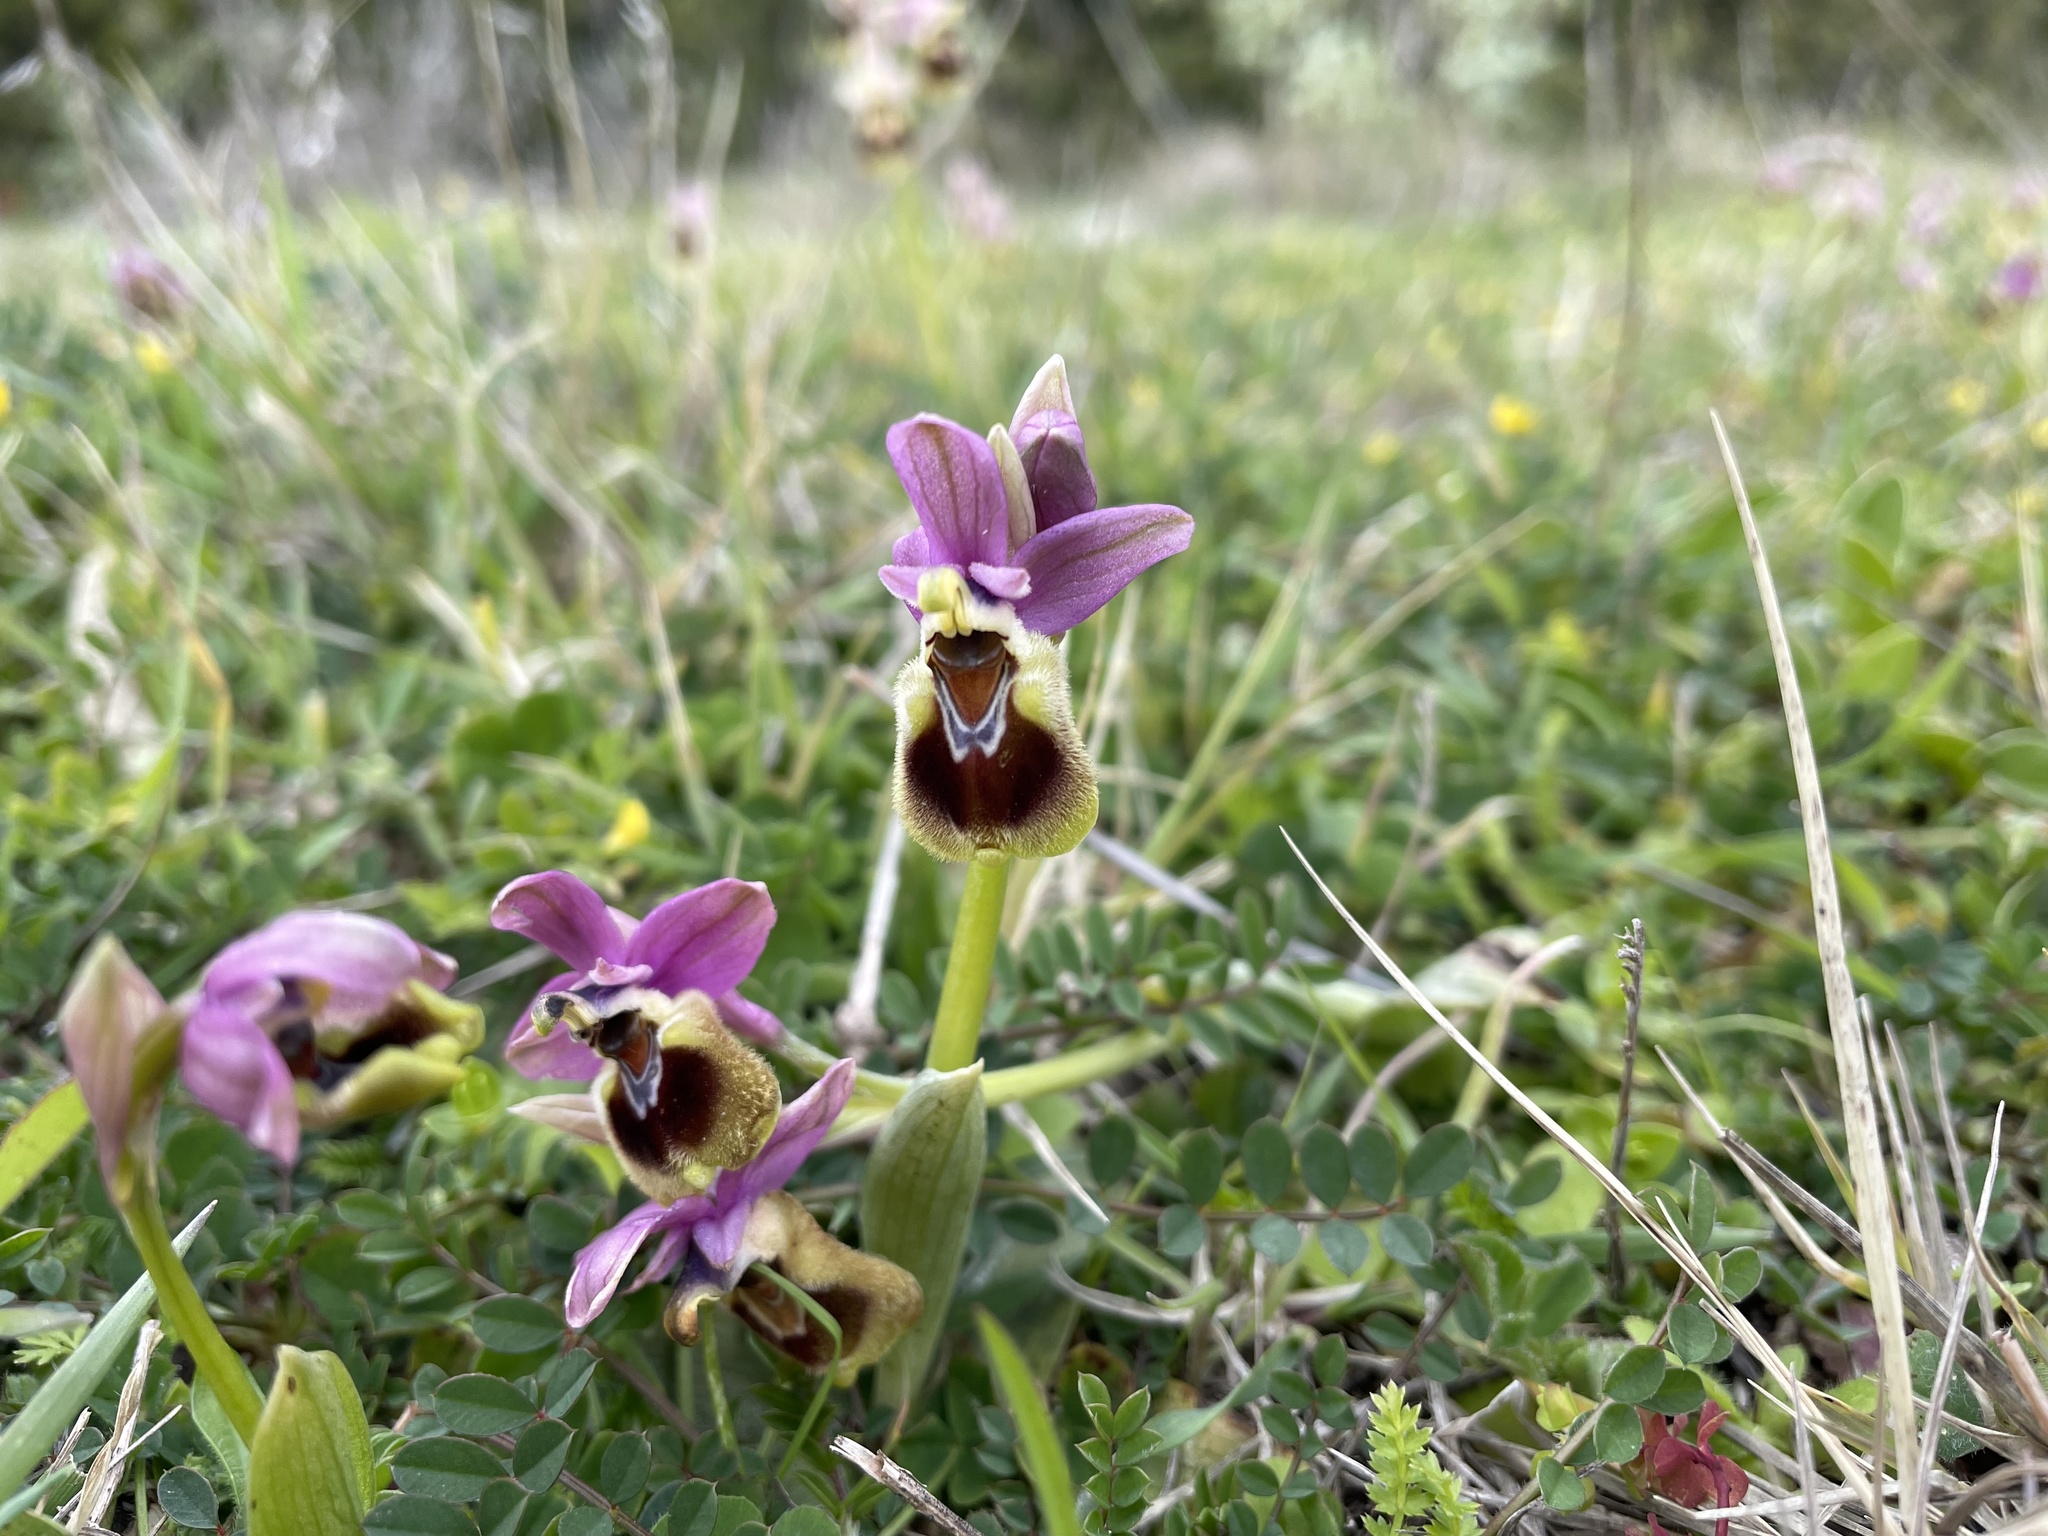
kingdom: Plantae
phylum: Tracheophyta
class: Liliopsida
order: Asparagales
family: Orchidaceae
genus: Ophrys
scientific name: Ophrys tenthredinifera
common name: Sawfly orchid
